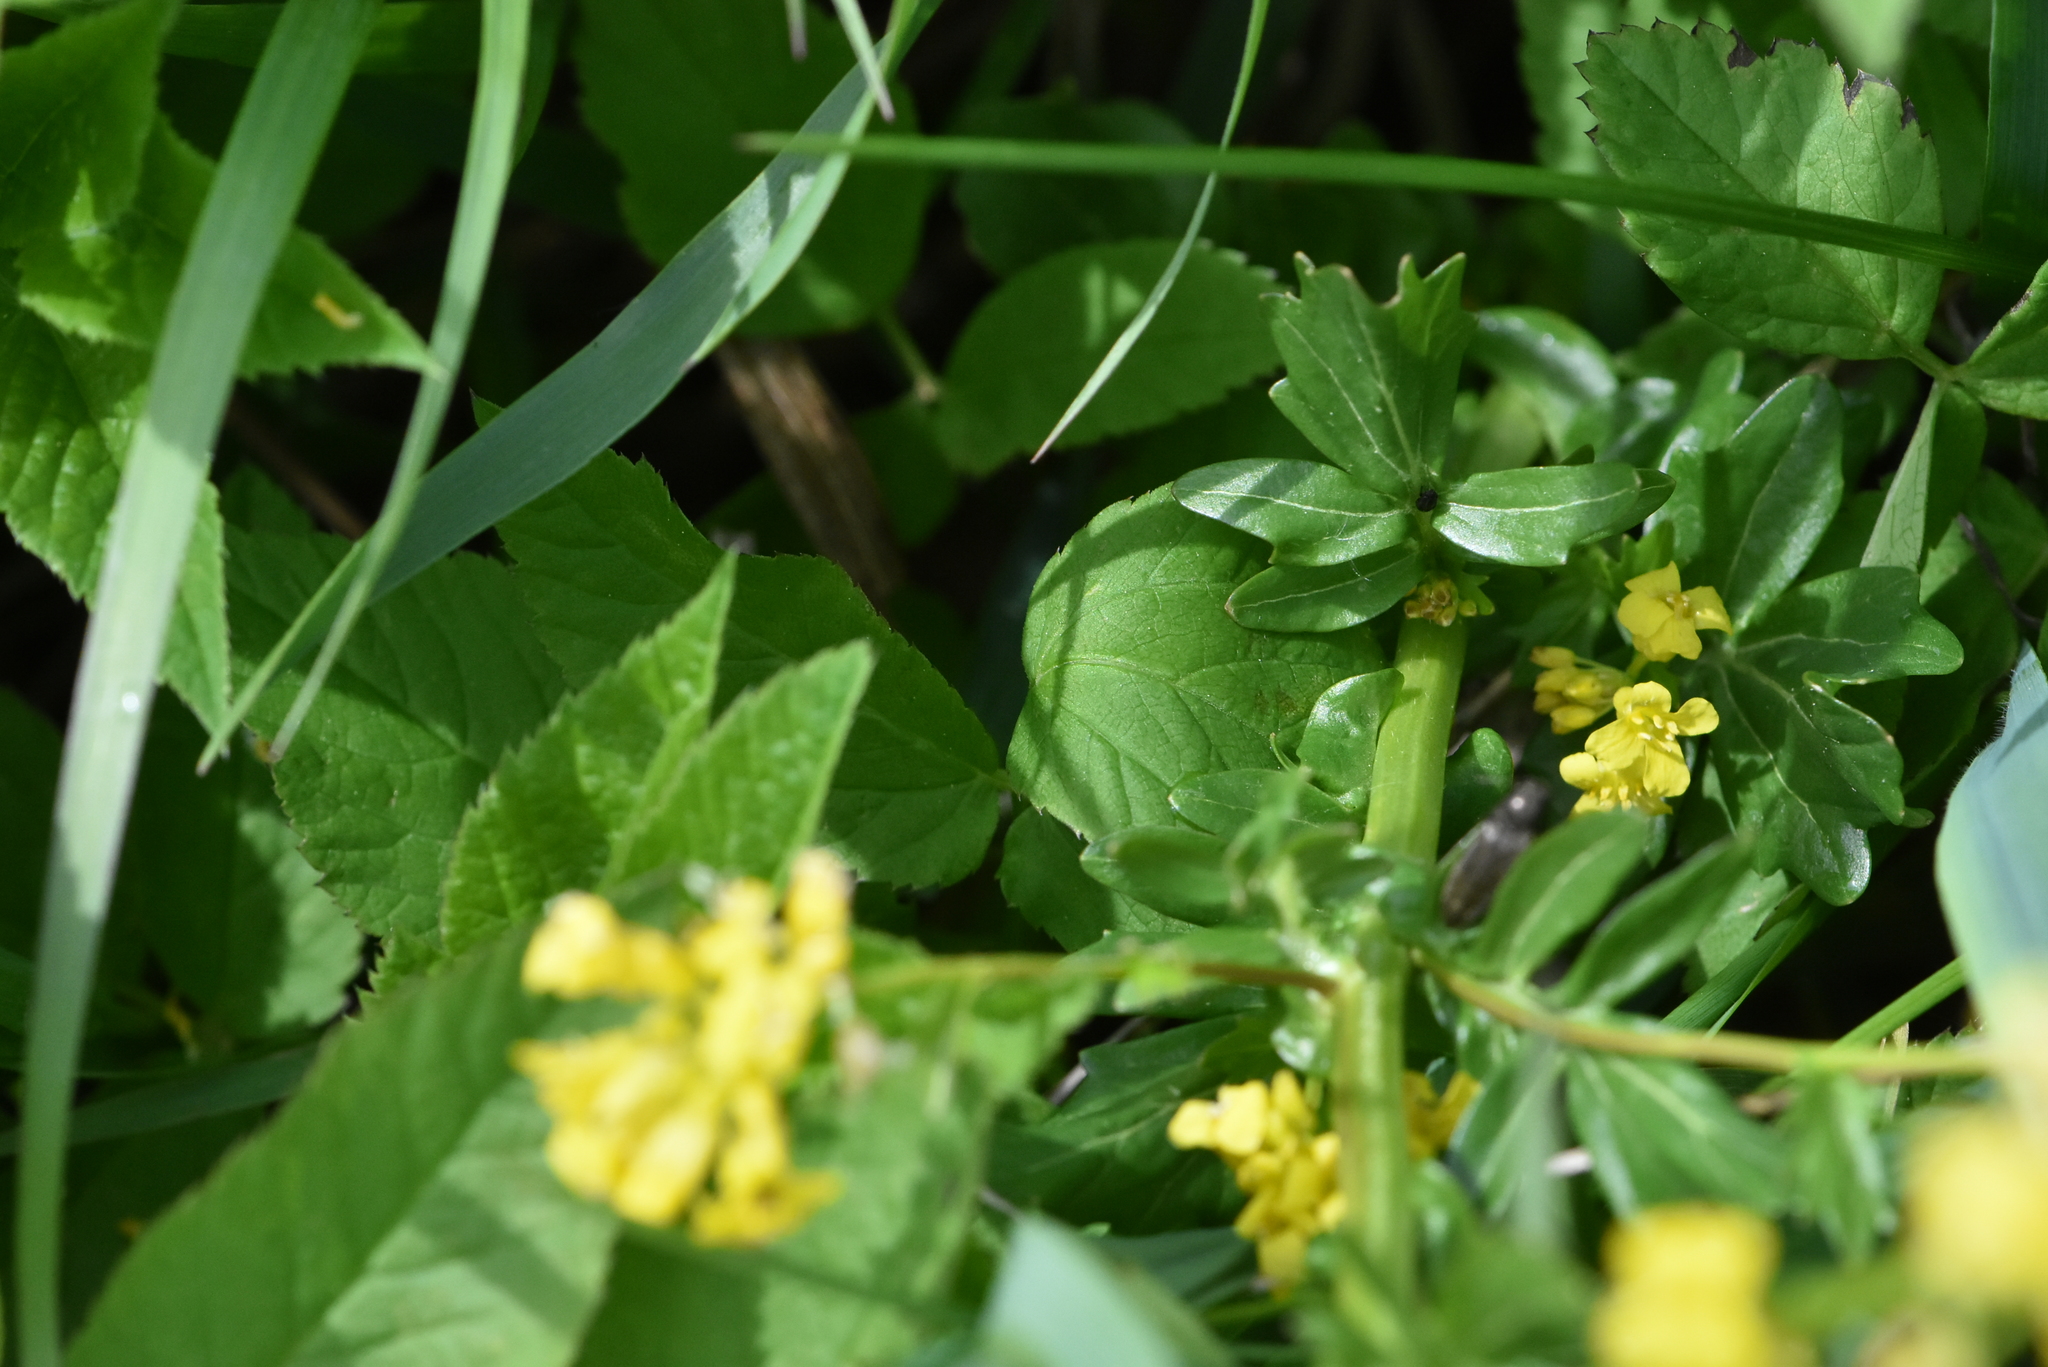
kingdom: Plantae
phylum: Tracheophyta
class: Magnoliopsida
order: Brassicales
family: Brassicaceae
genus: Barbarea
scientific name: Barbarea vulgaris
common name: Cressy-greens
